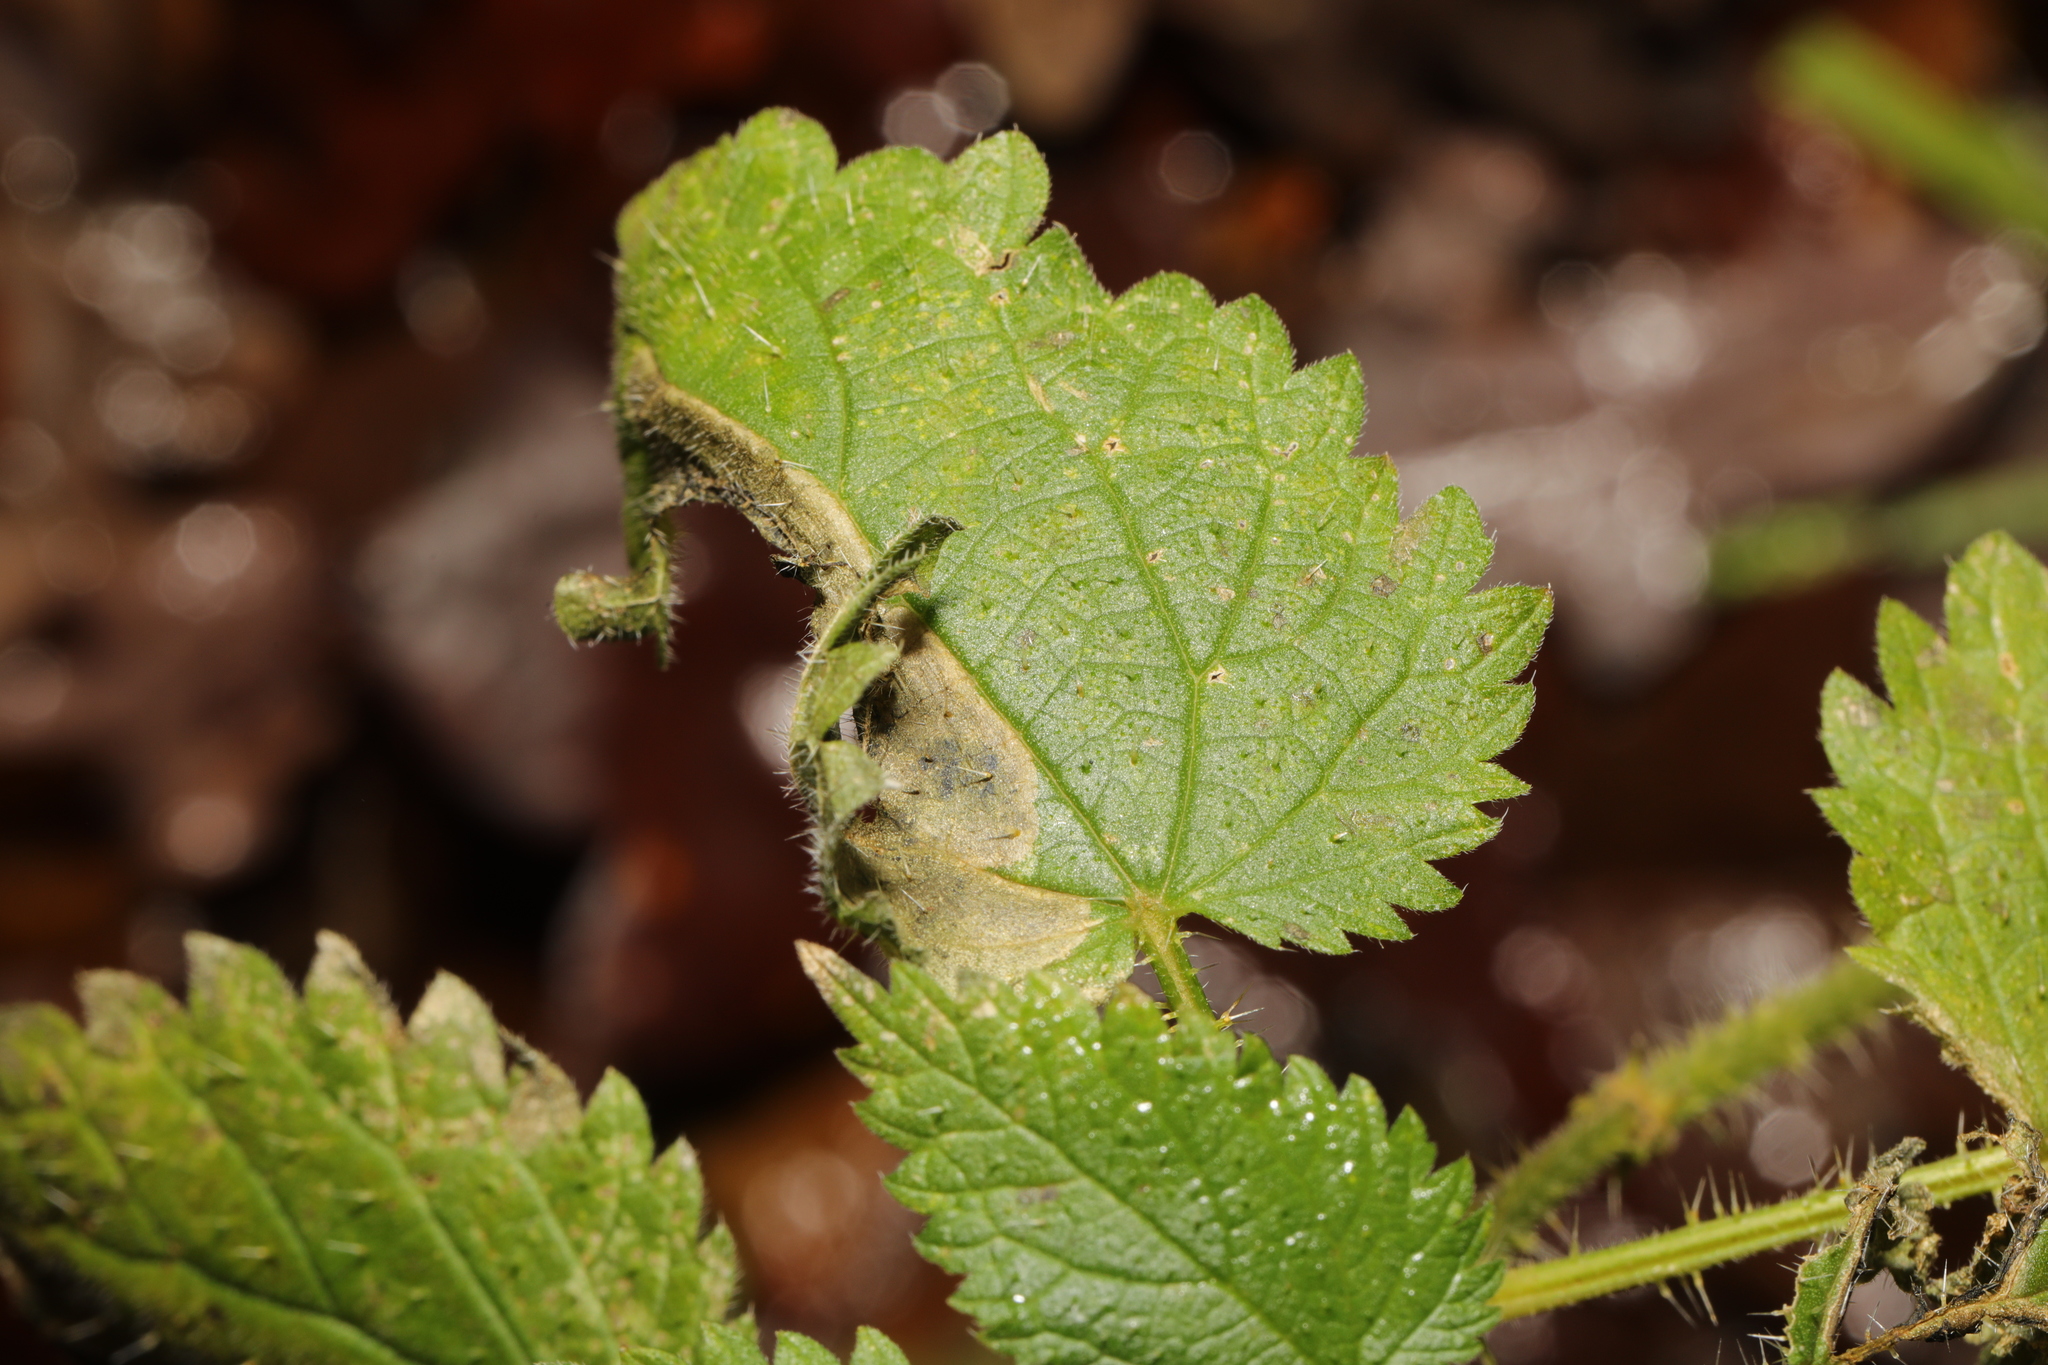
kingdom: Animalia
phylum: Arthropoda
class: Insecta
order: Diptera
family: Agromyzidae
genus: Agromyza
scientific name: Agromyza anthracina
